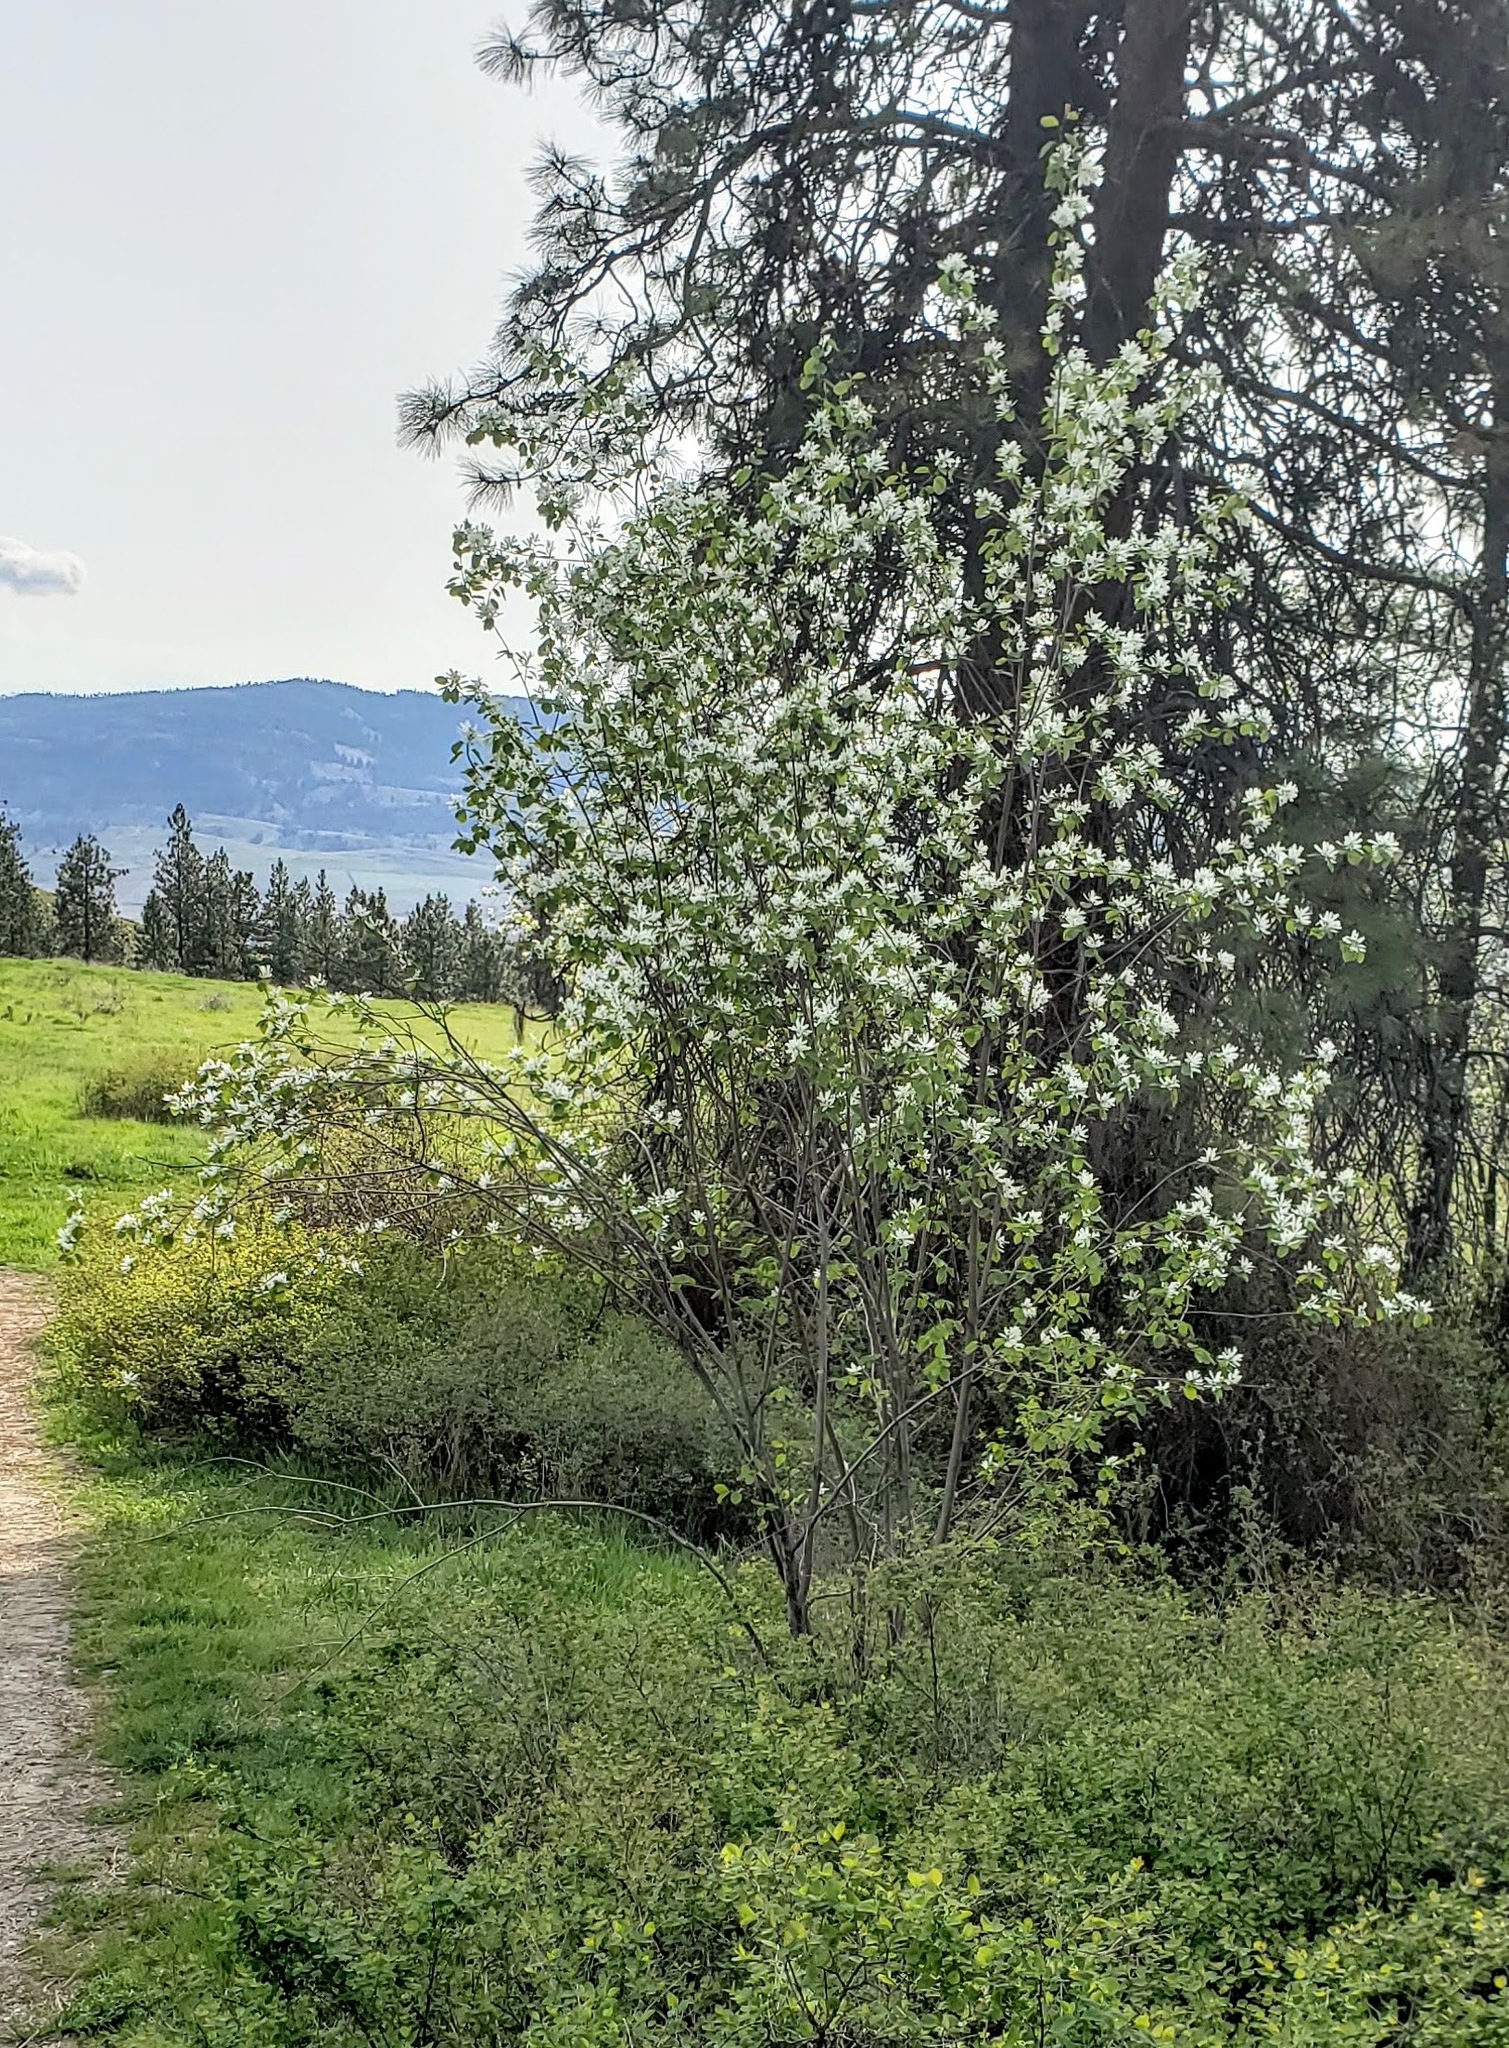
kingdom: Plantae
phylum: Tracheophyta
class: Magnoliopsida
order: Rosales
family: Rosaceae
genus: Amelanchier
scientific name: Amelanchier alnifolia
